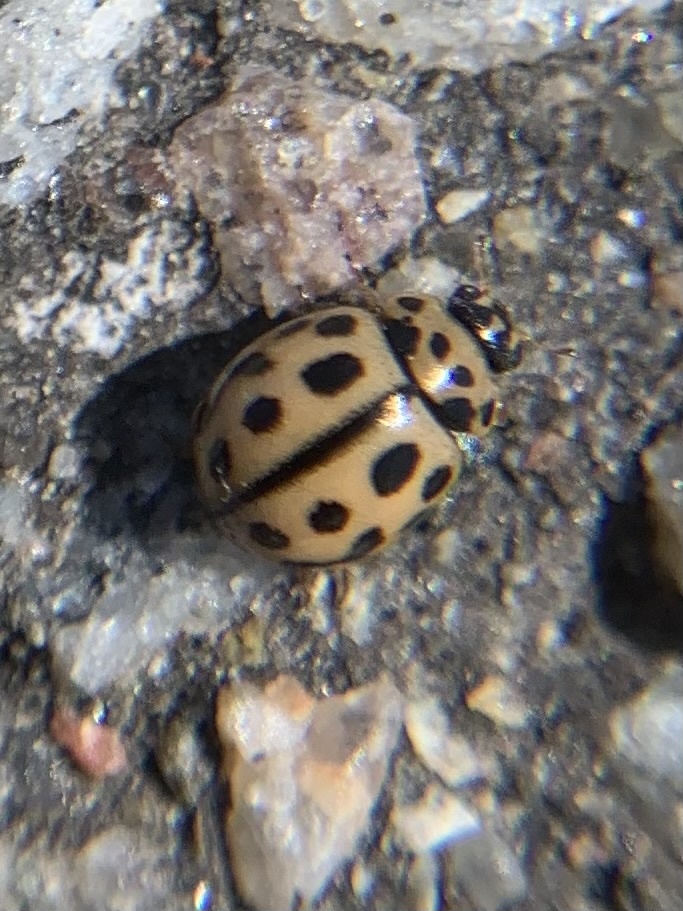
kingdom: Animalia
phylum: Arthropoda
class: Insecta
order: Coleoptera
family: Coccinellidae
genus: Tytthaspis
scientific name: Tytthaspis sedecimpunctata
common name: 16-spot ladybird
